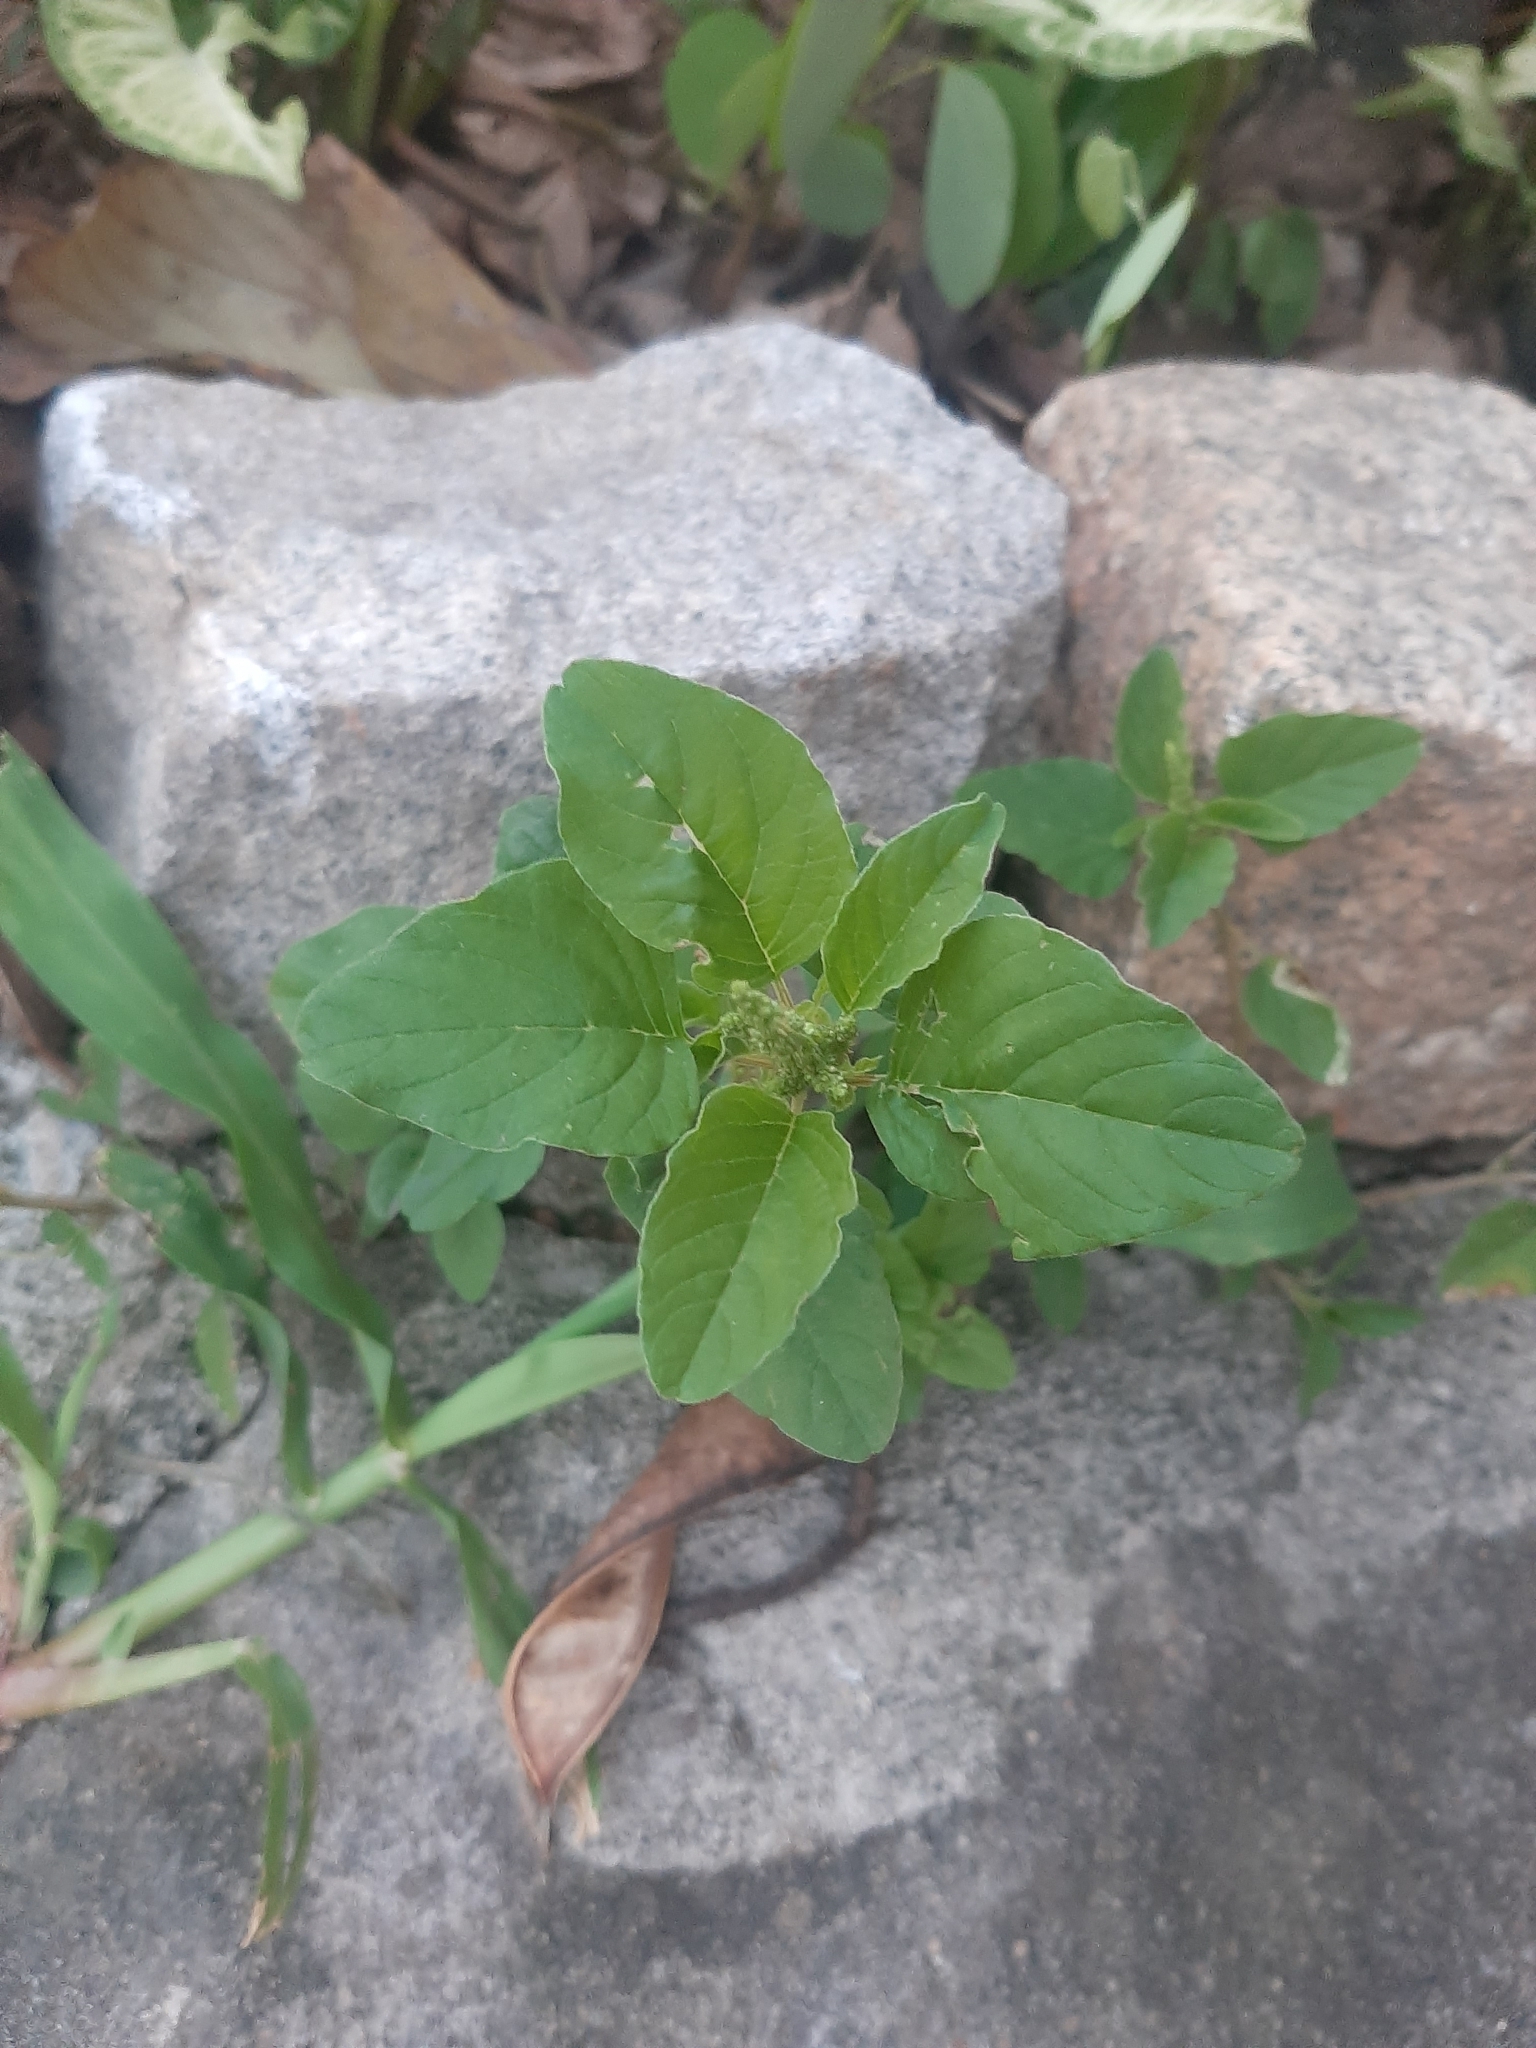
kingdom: Plantae
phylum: Tracheophyta
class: Magnoliopsida
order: Caryophyllales
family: Amaranthaceae
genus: Amaranthus
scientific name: Amaranthus deflexus
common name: Perennial pigweed
